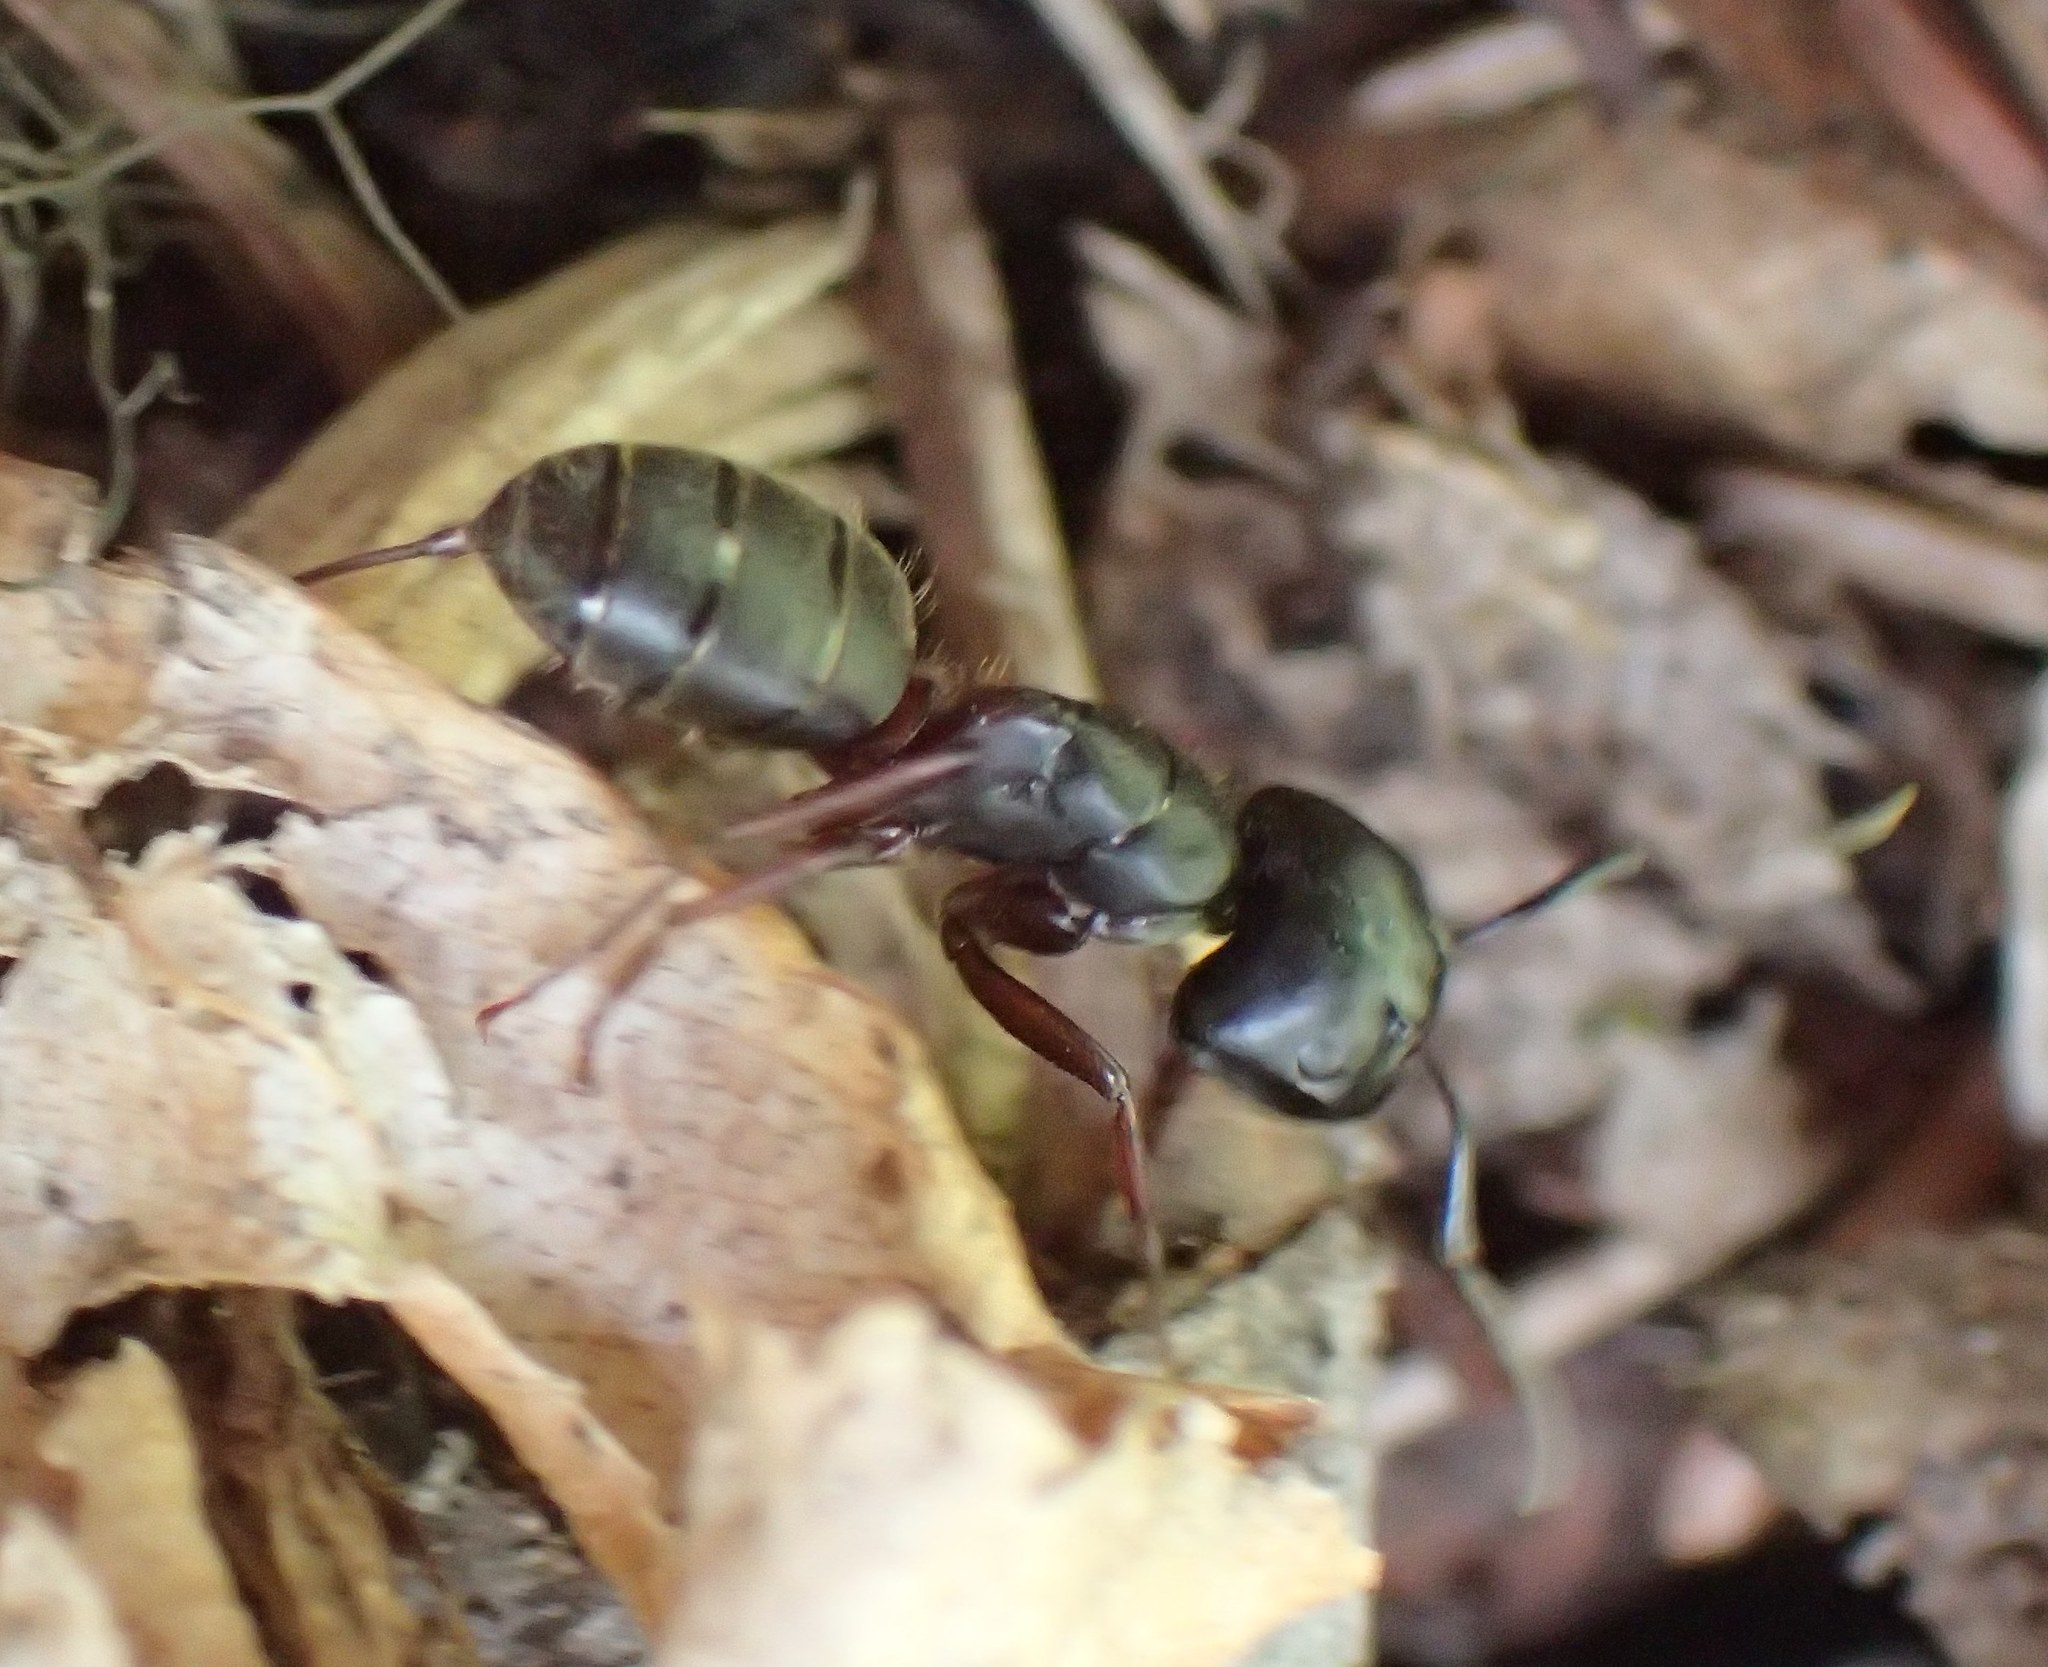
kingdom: Animalia
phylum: Arthropoda
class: Insecta
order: Hymenoptera
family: Formicidae
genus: Camponotus
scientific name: Camponotus herculeanus
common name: Hercules ant
